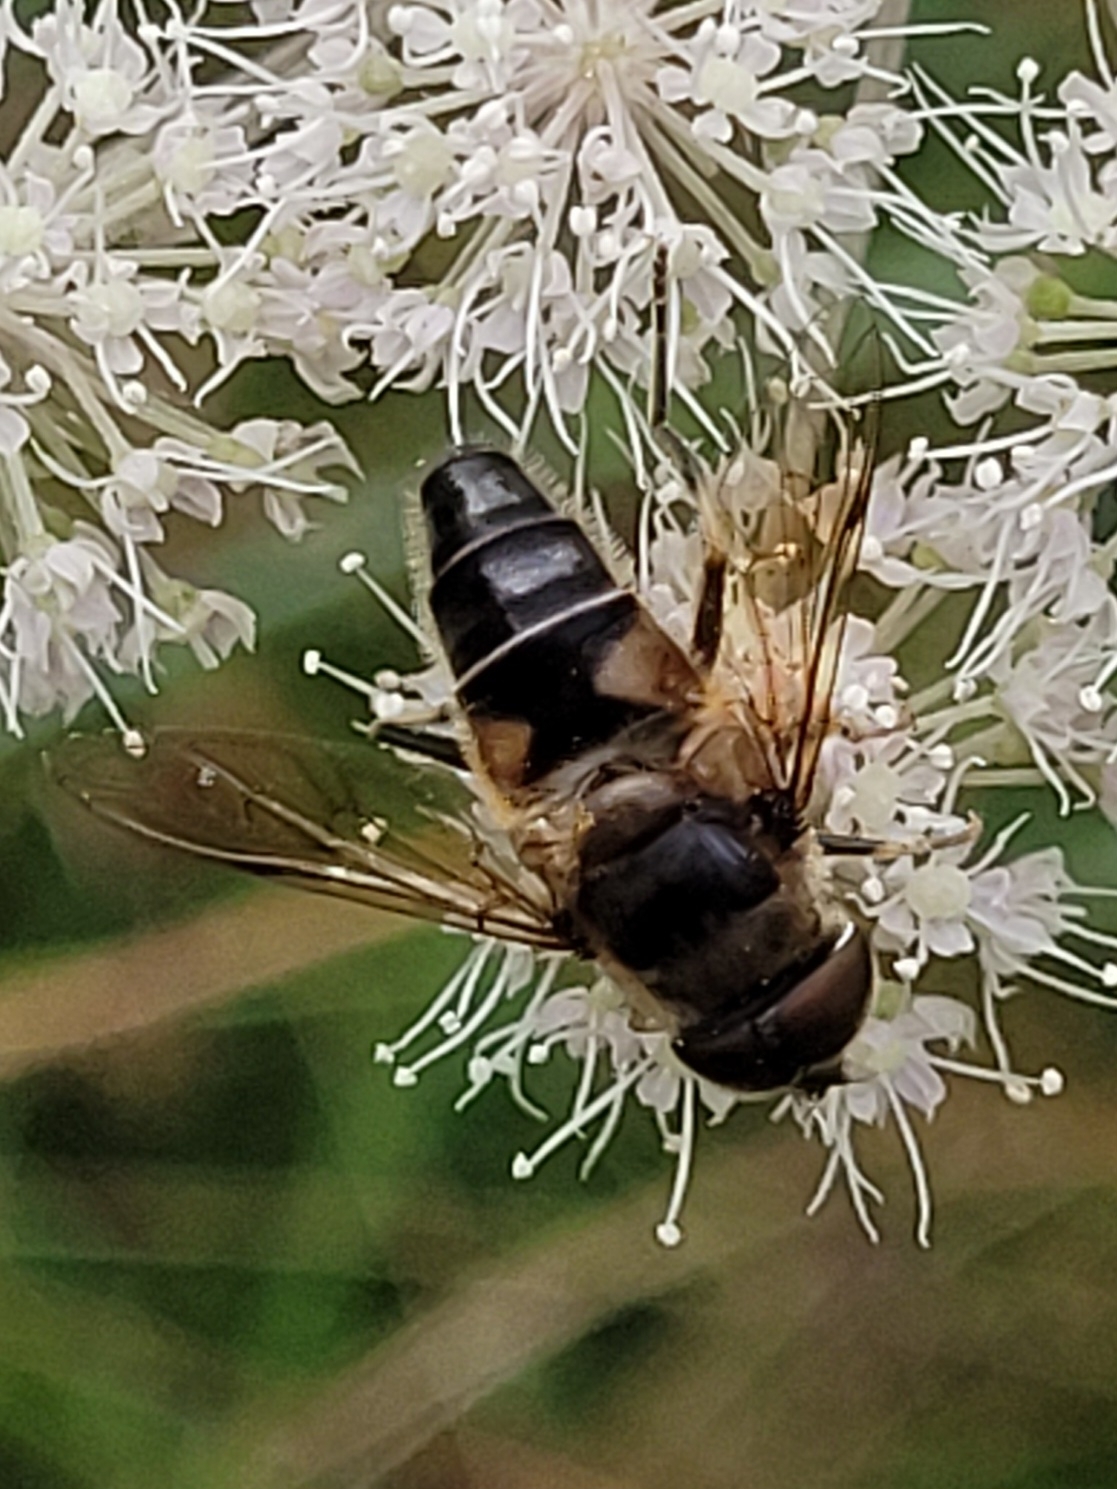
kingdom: Animalia
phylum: Arthropoda
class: Insecta
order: Diptera
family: Syrphidae
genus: Eristalis
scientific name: Eristalis pertinax
